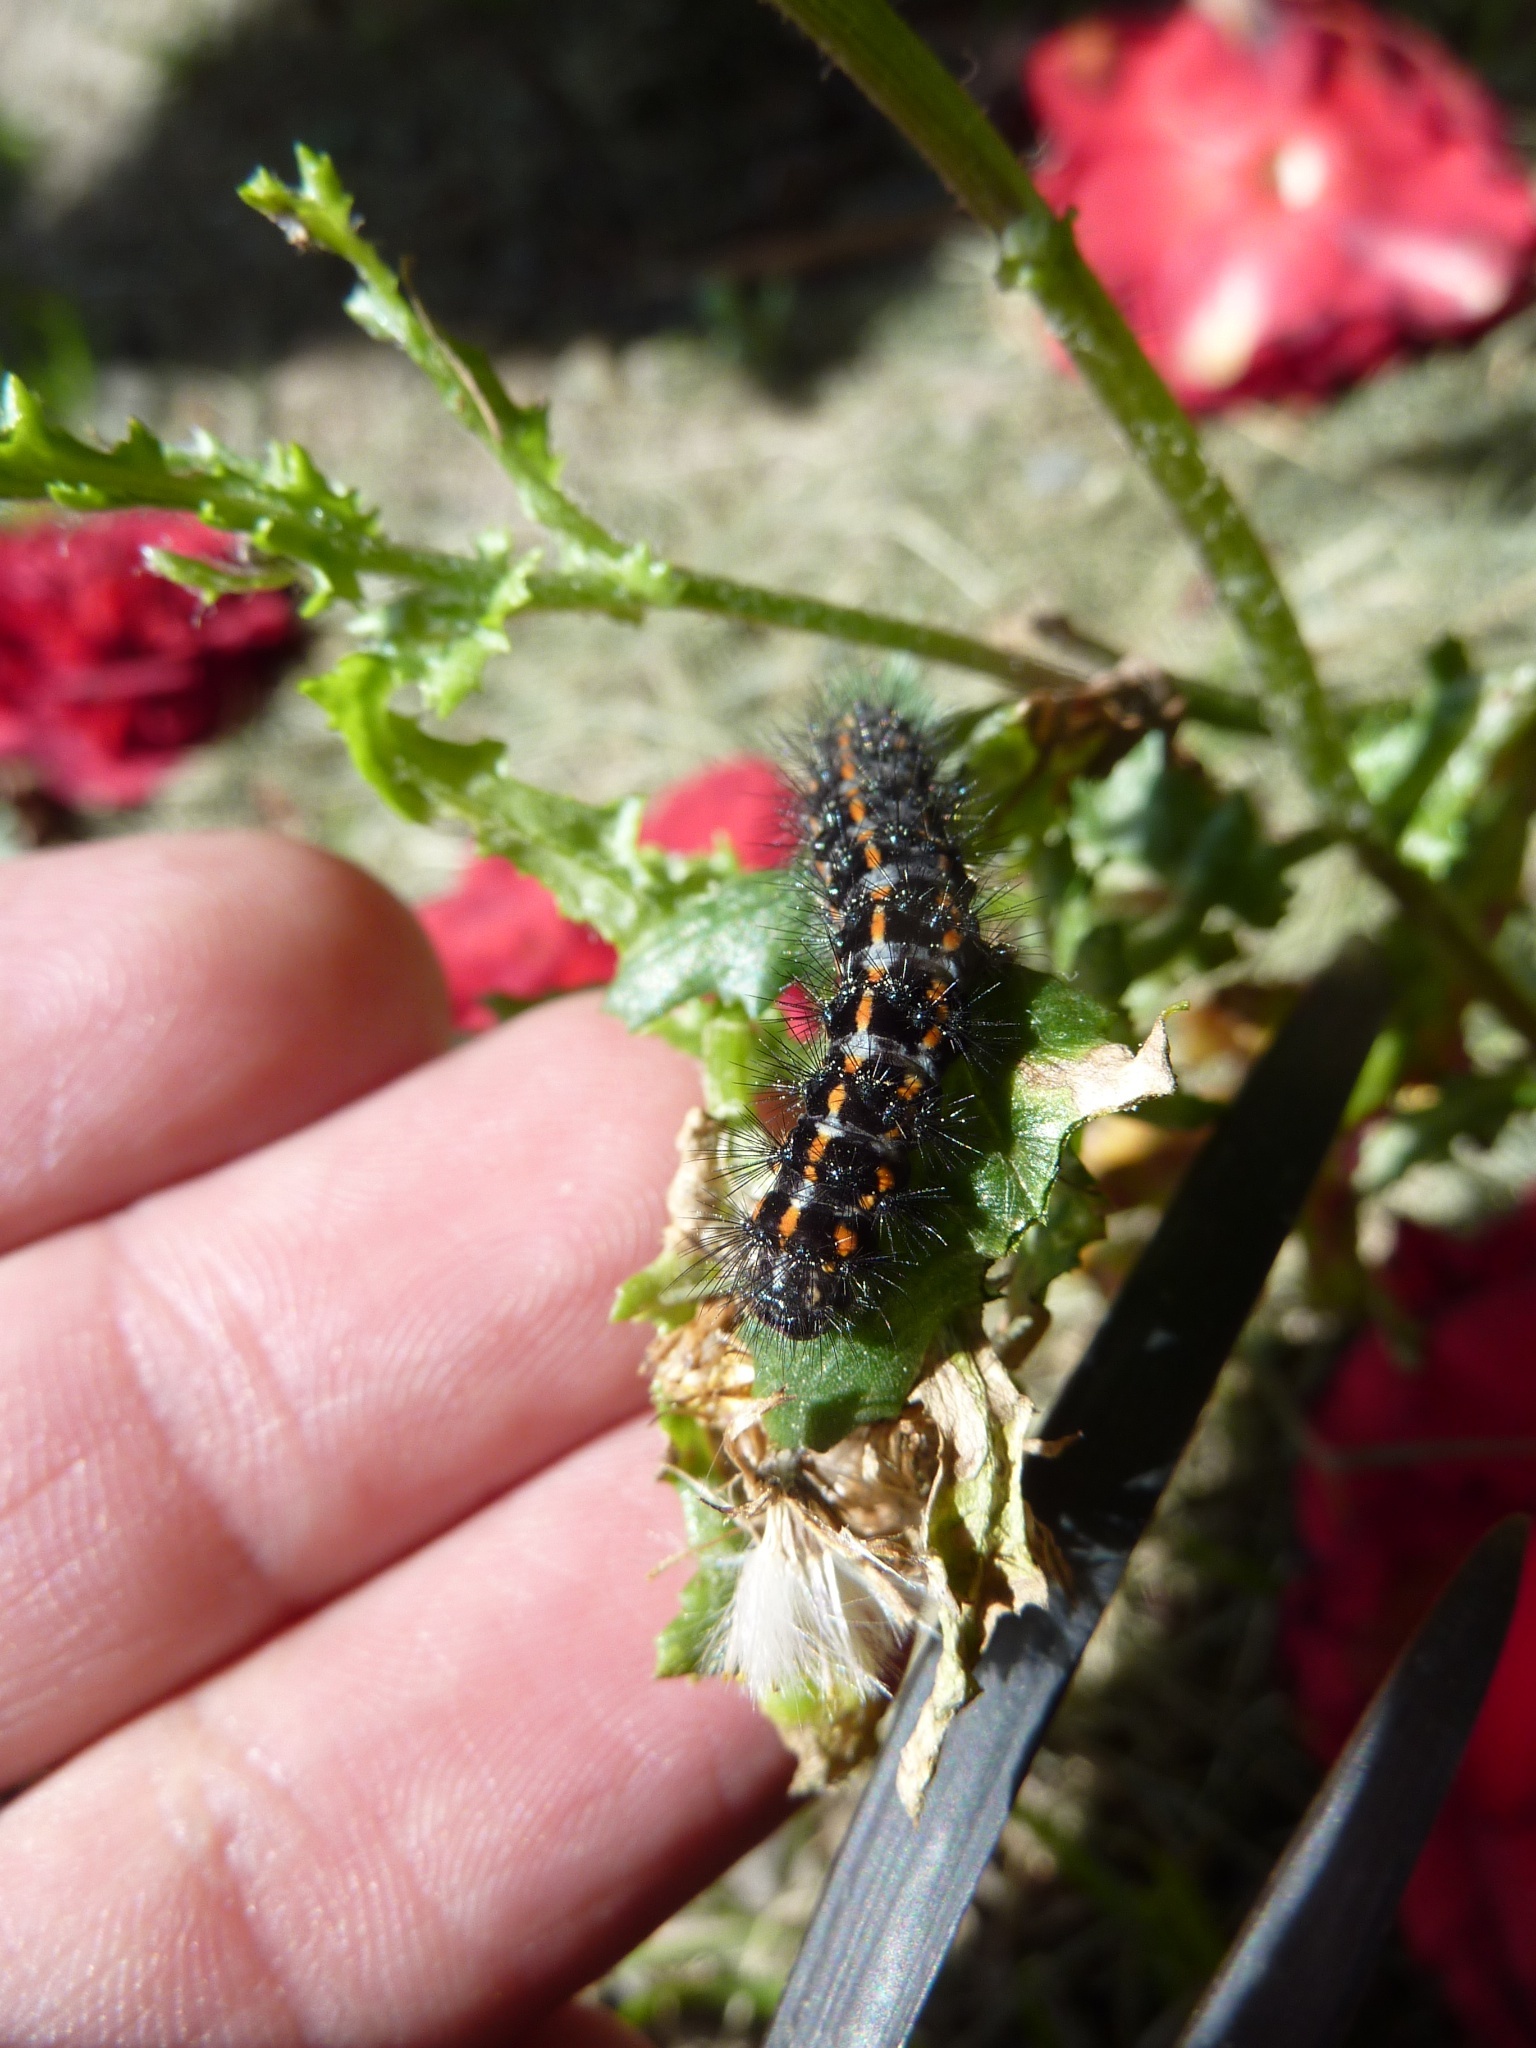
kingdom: Animalia
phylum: Arthropoda
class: Insecta
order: Lepidoptera
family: Erebidae
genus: Nyctemera
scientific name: Nyctemera annulatum
